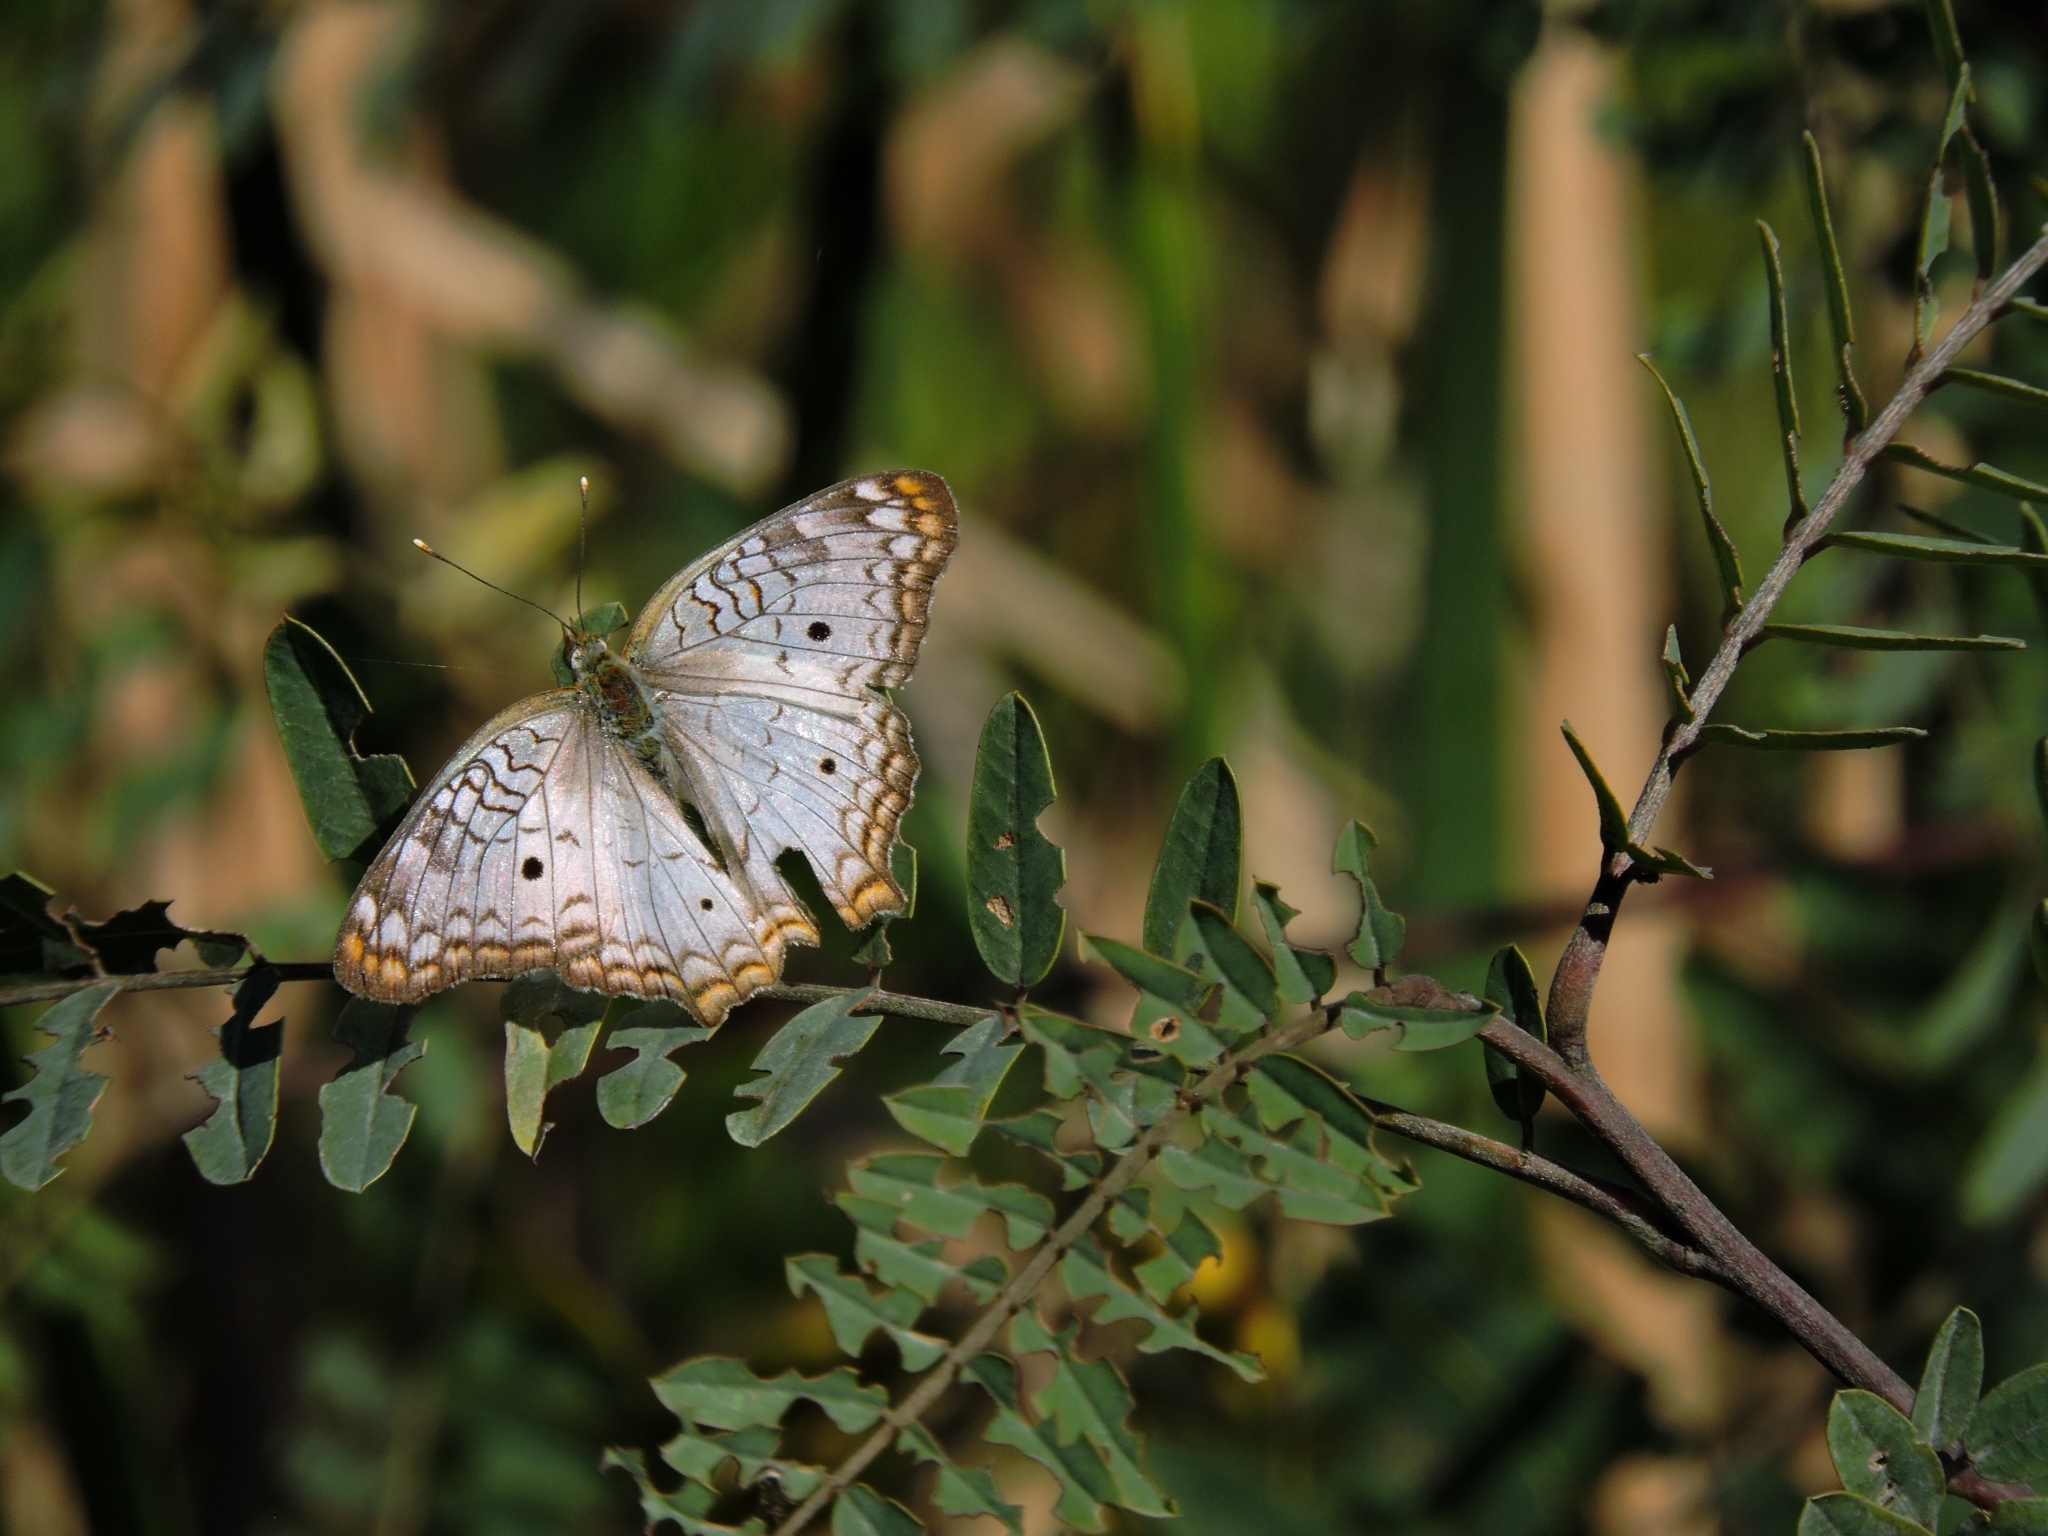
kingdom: Animalia
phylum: Arthropoda
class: Insecta
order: Lepidoptera
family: Nymphalidae
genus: Anartia
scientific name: Anartia jatrophae
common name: White peacock
